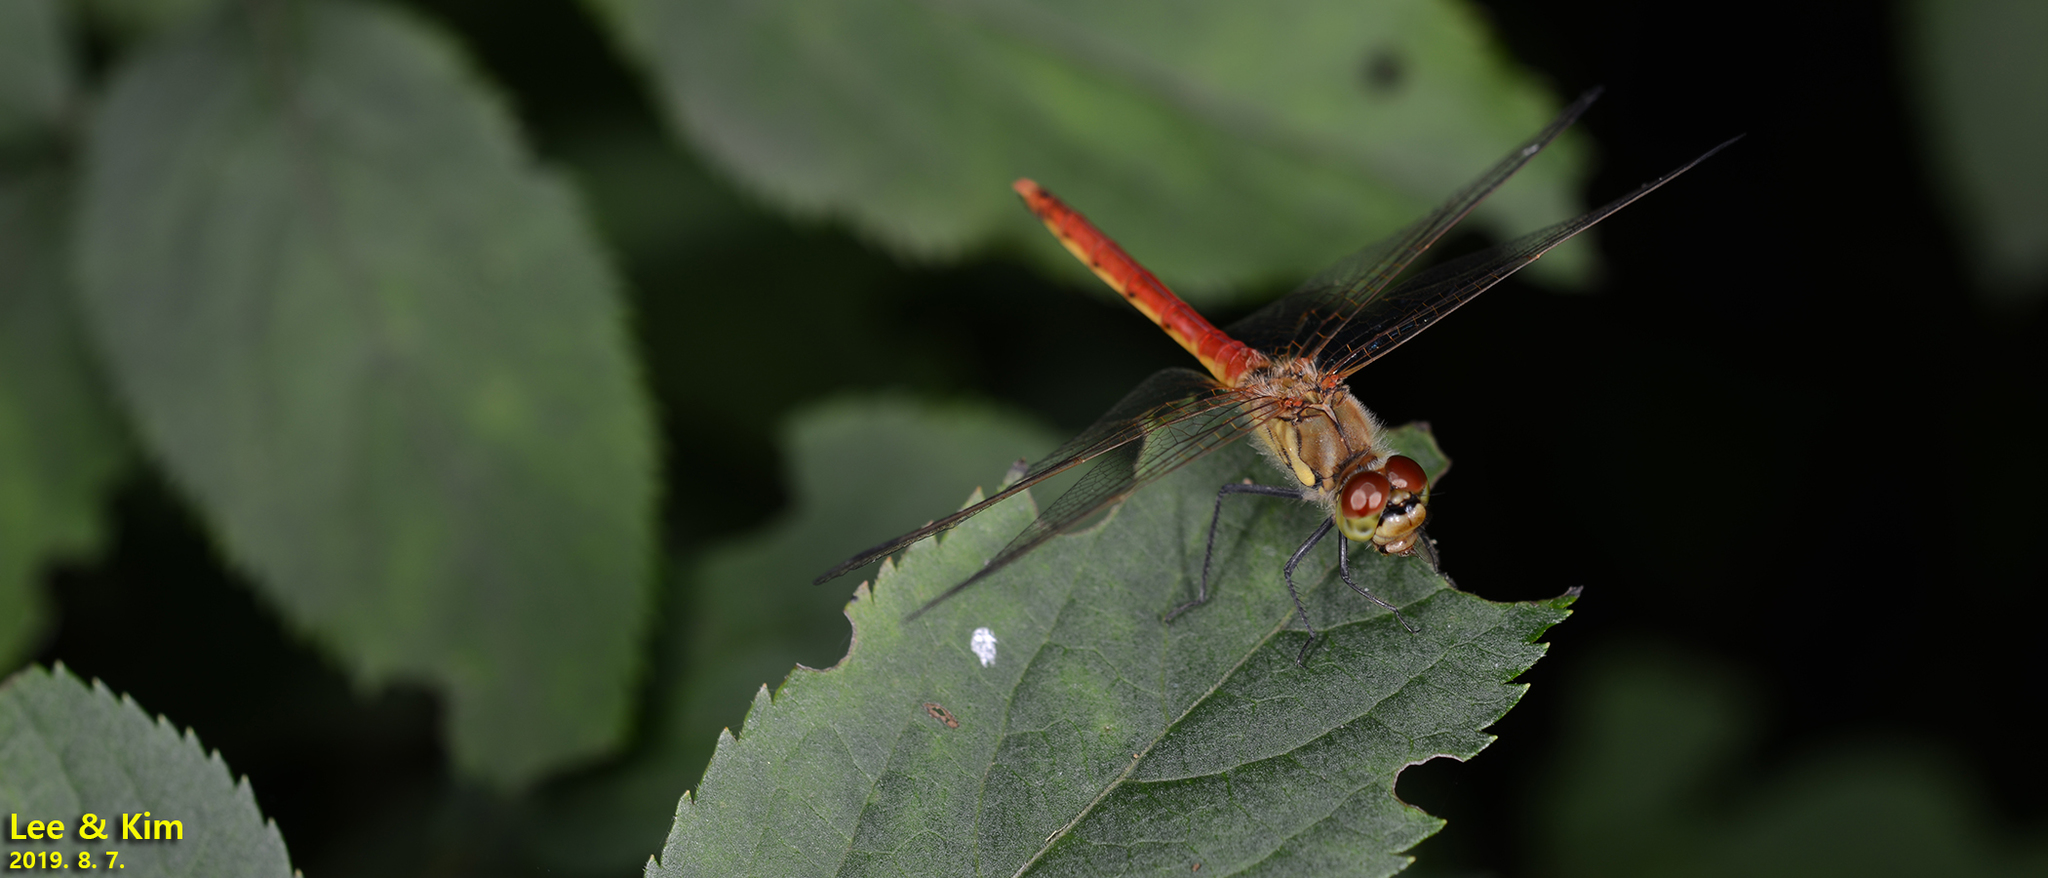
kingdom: Animalia
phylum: Arthropoda
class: Insecta
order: Odonata
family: Libellulidae
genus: Sympetrum
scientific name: Sympetrum depressiusculum
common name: Spotted darter
